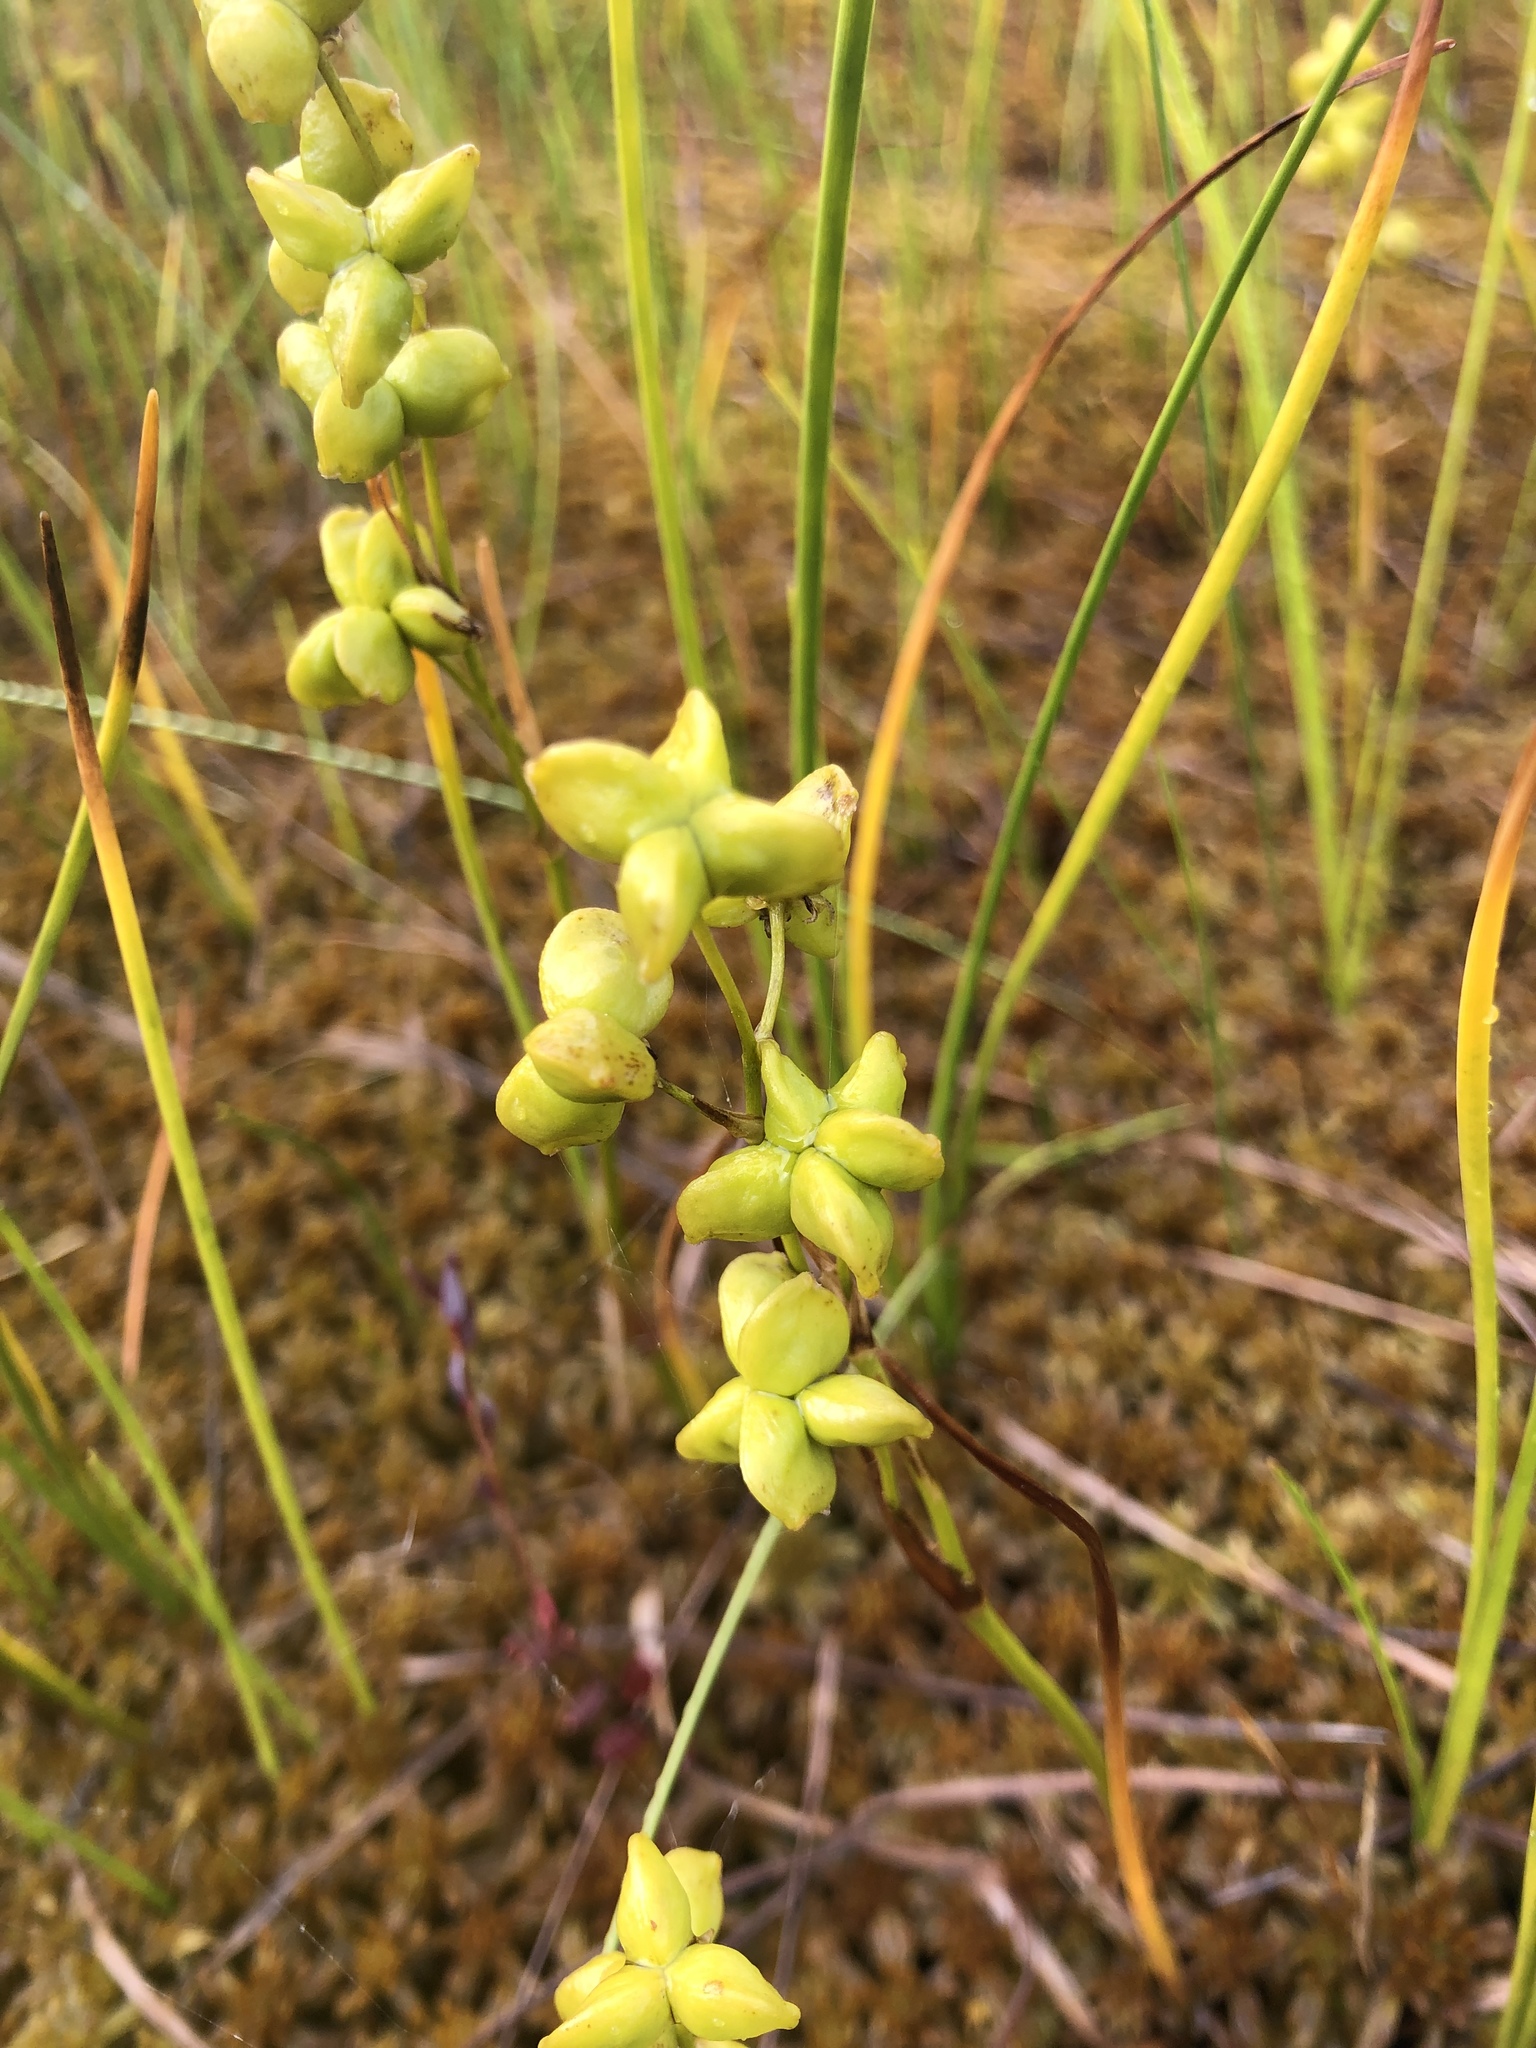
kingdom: Plantae
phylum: Tracheophyta
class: Liliopsida
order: Alismatales
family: Scheuchzeriaceae
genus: Scheuchzeria
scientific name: Scheuchzeria palustris
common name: Rannoch-rush
